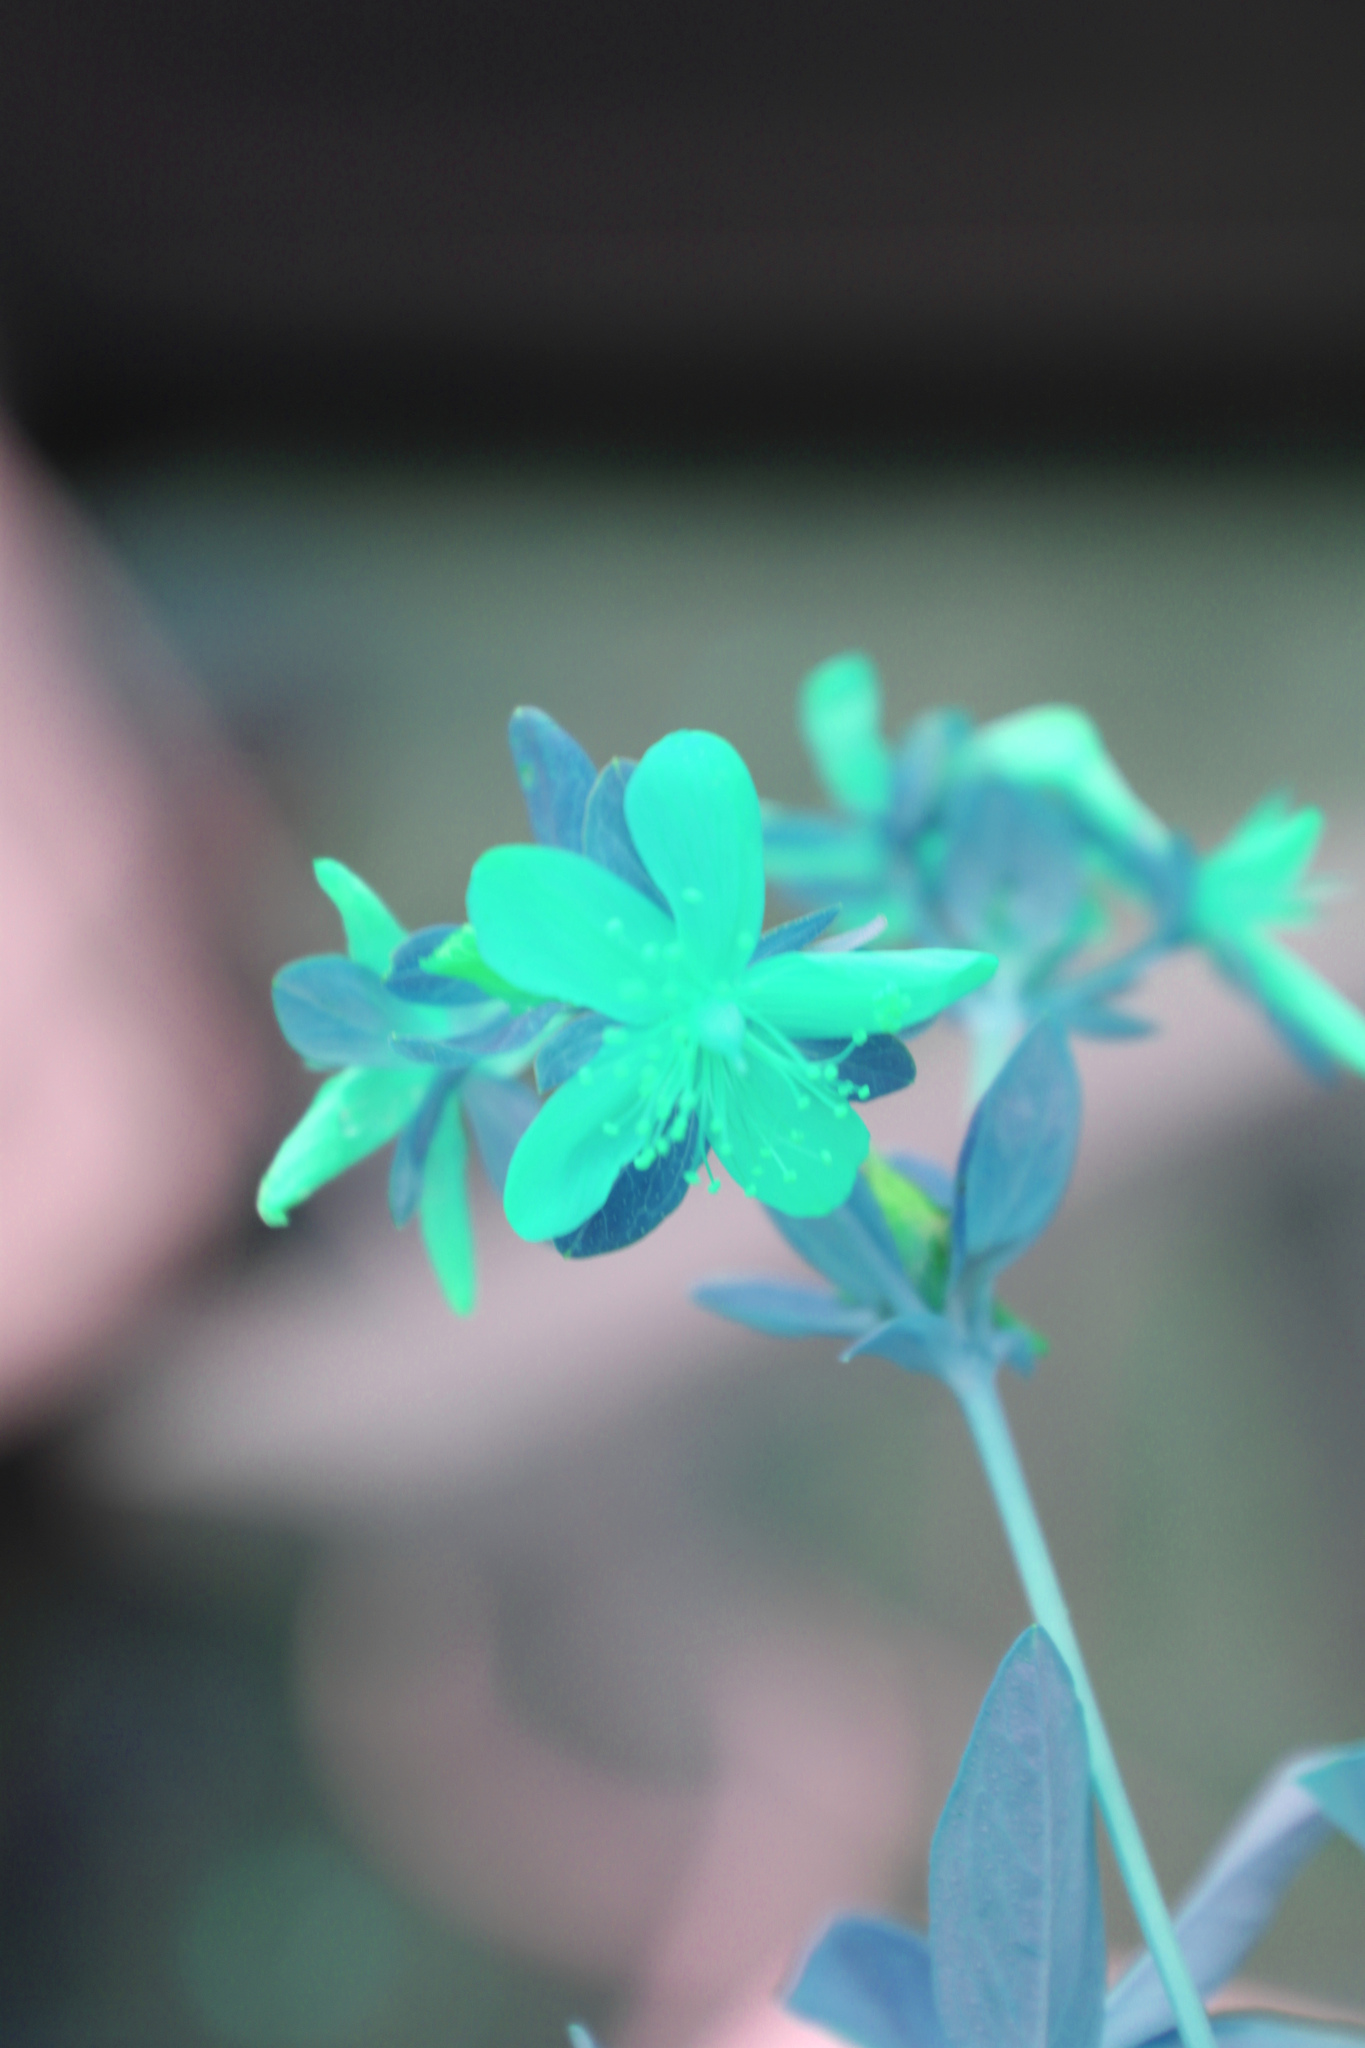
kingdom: Plantae
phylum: Tracheophyta
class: Magnoliopsida
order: Malpighiales
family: Hypericaceae
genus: Hypericum
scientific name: Hypericum ellipticum
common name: Elliptic st. john's-wort
